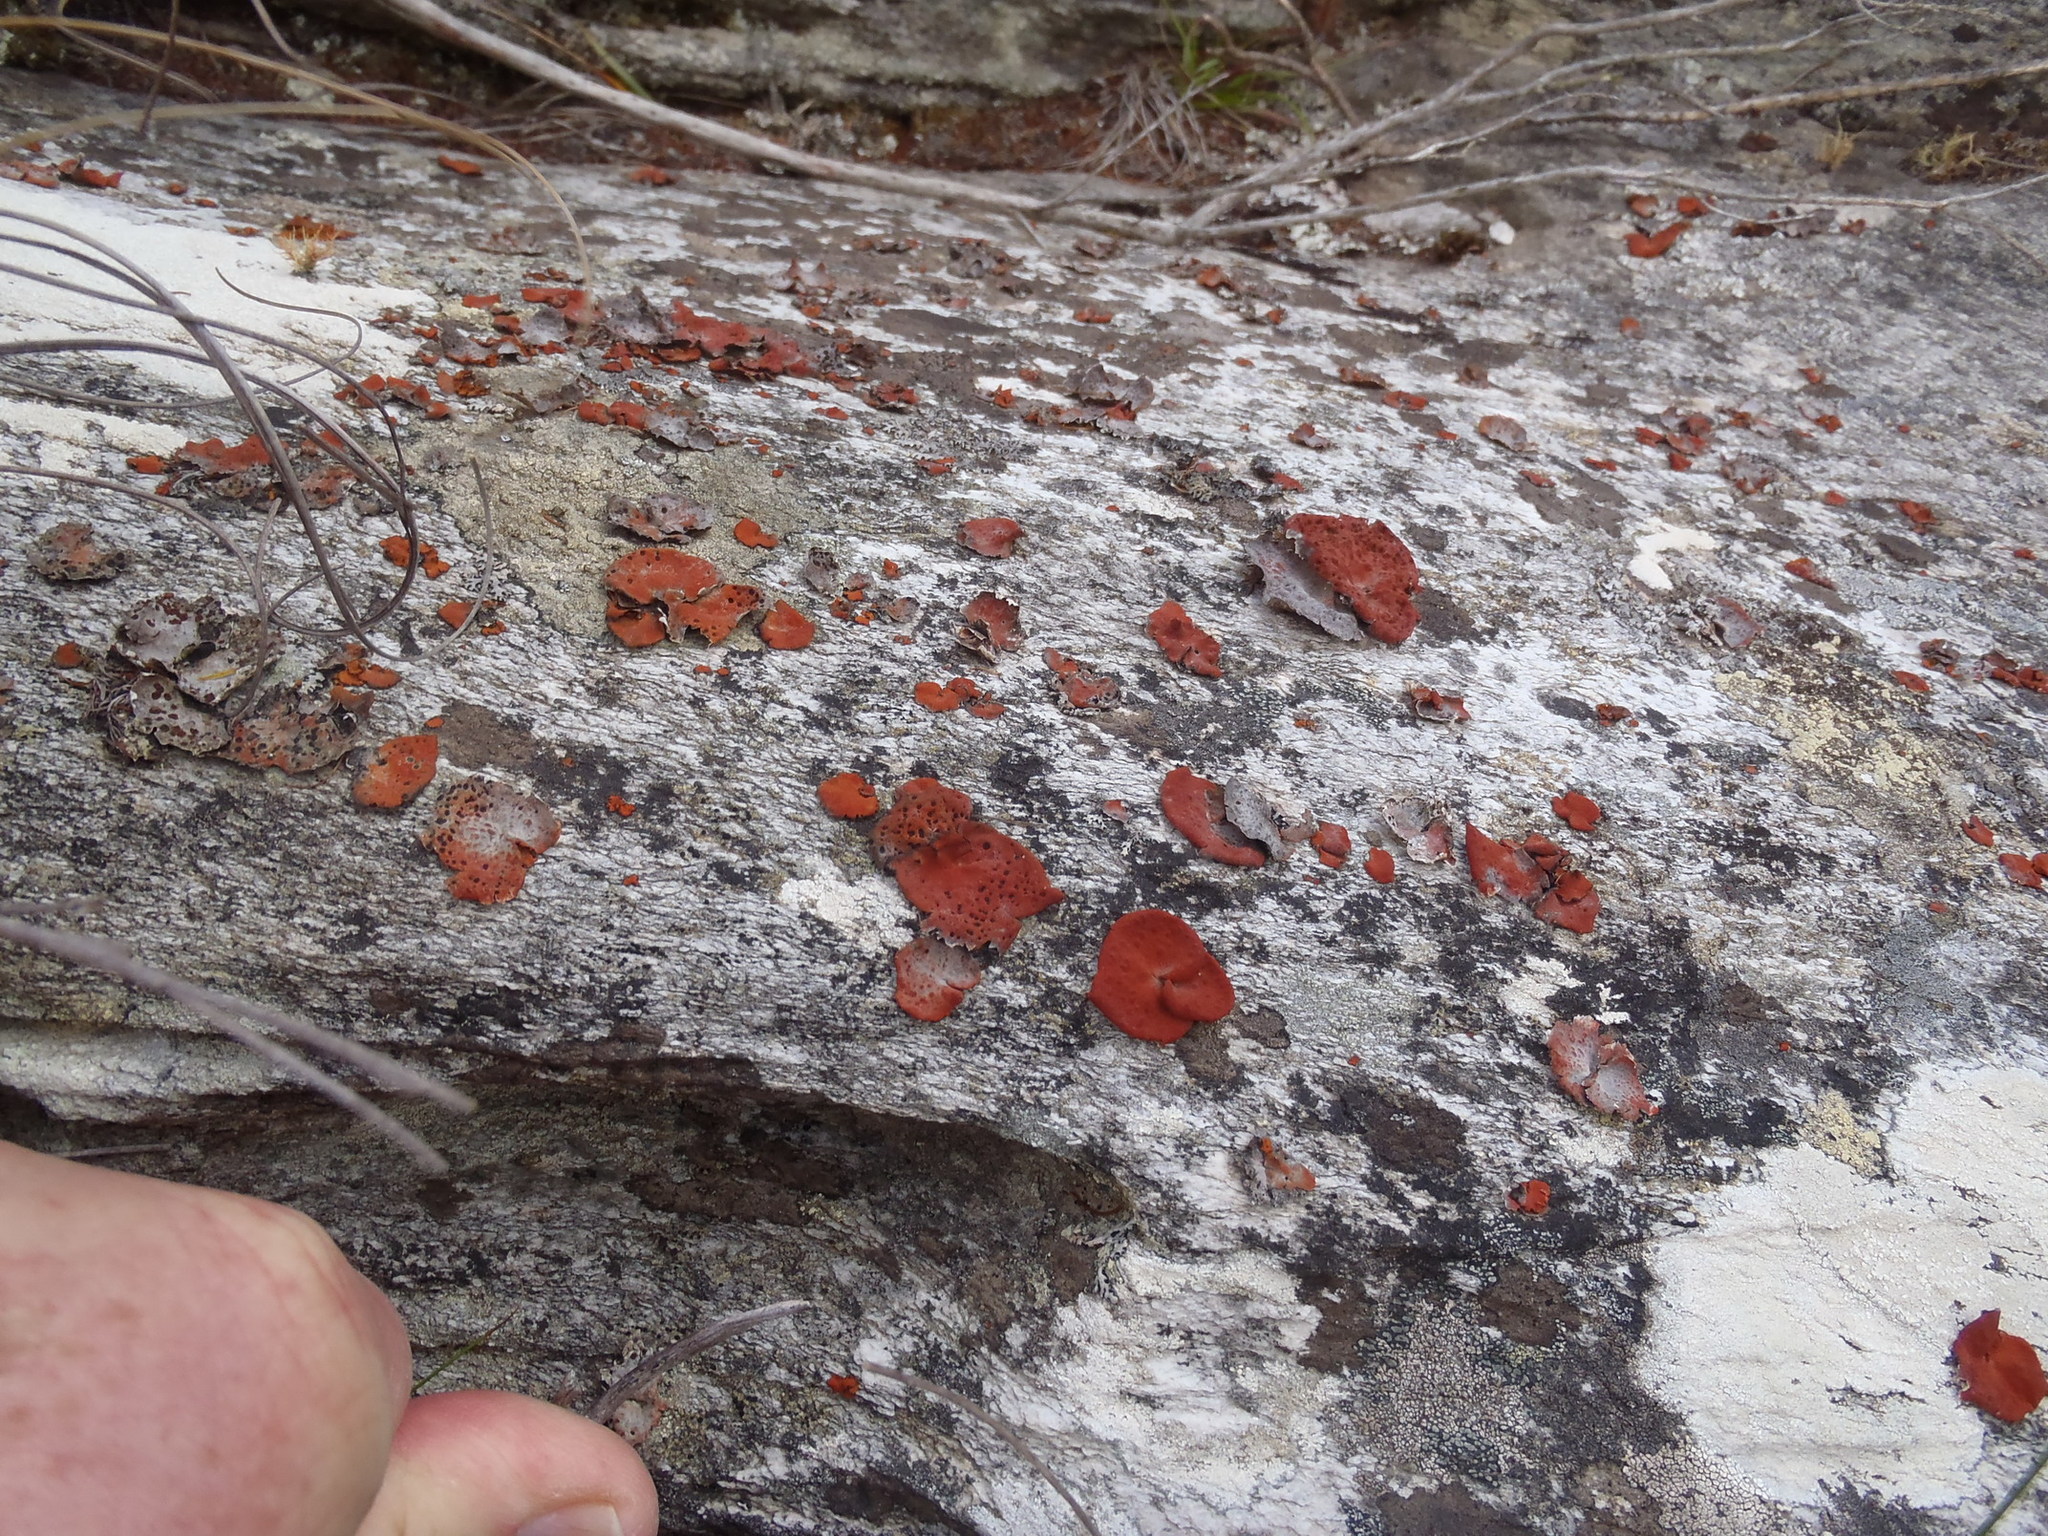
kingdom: Fungi
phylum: Ascomycota
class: Lecanoromycetes
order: Umbilicariales
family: Umbilicariaceae
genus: Lasallia
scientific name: Lasallia rubiginosa
